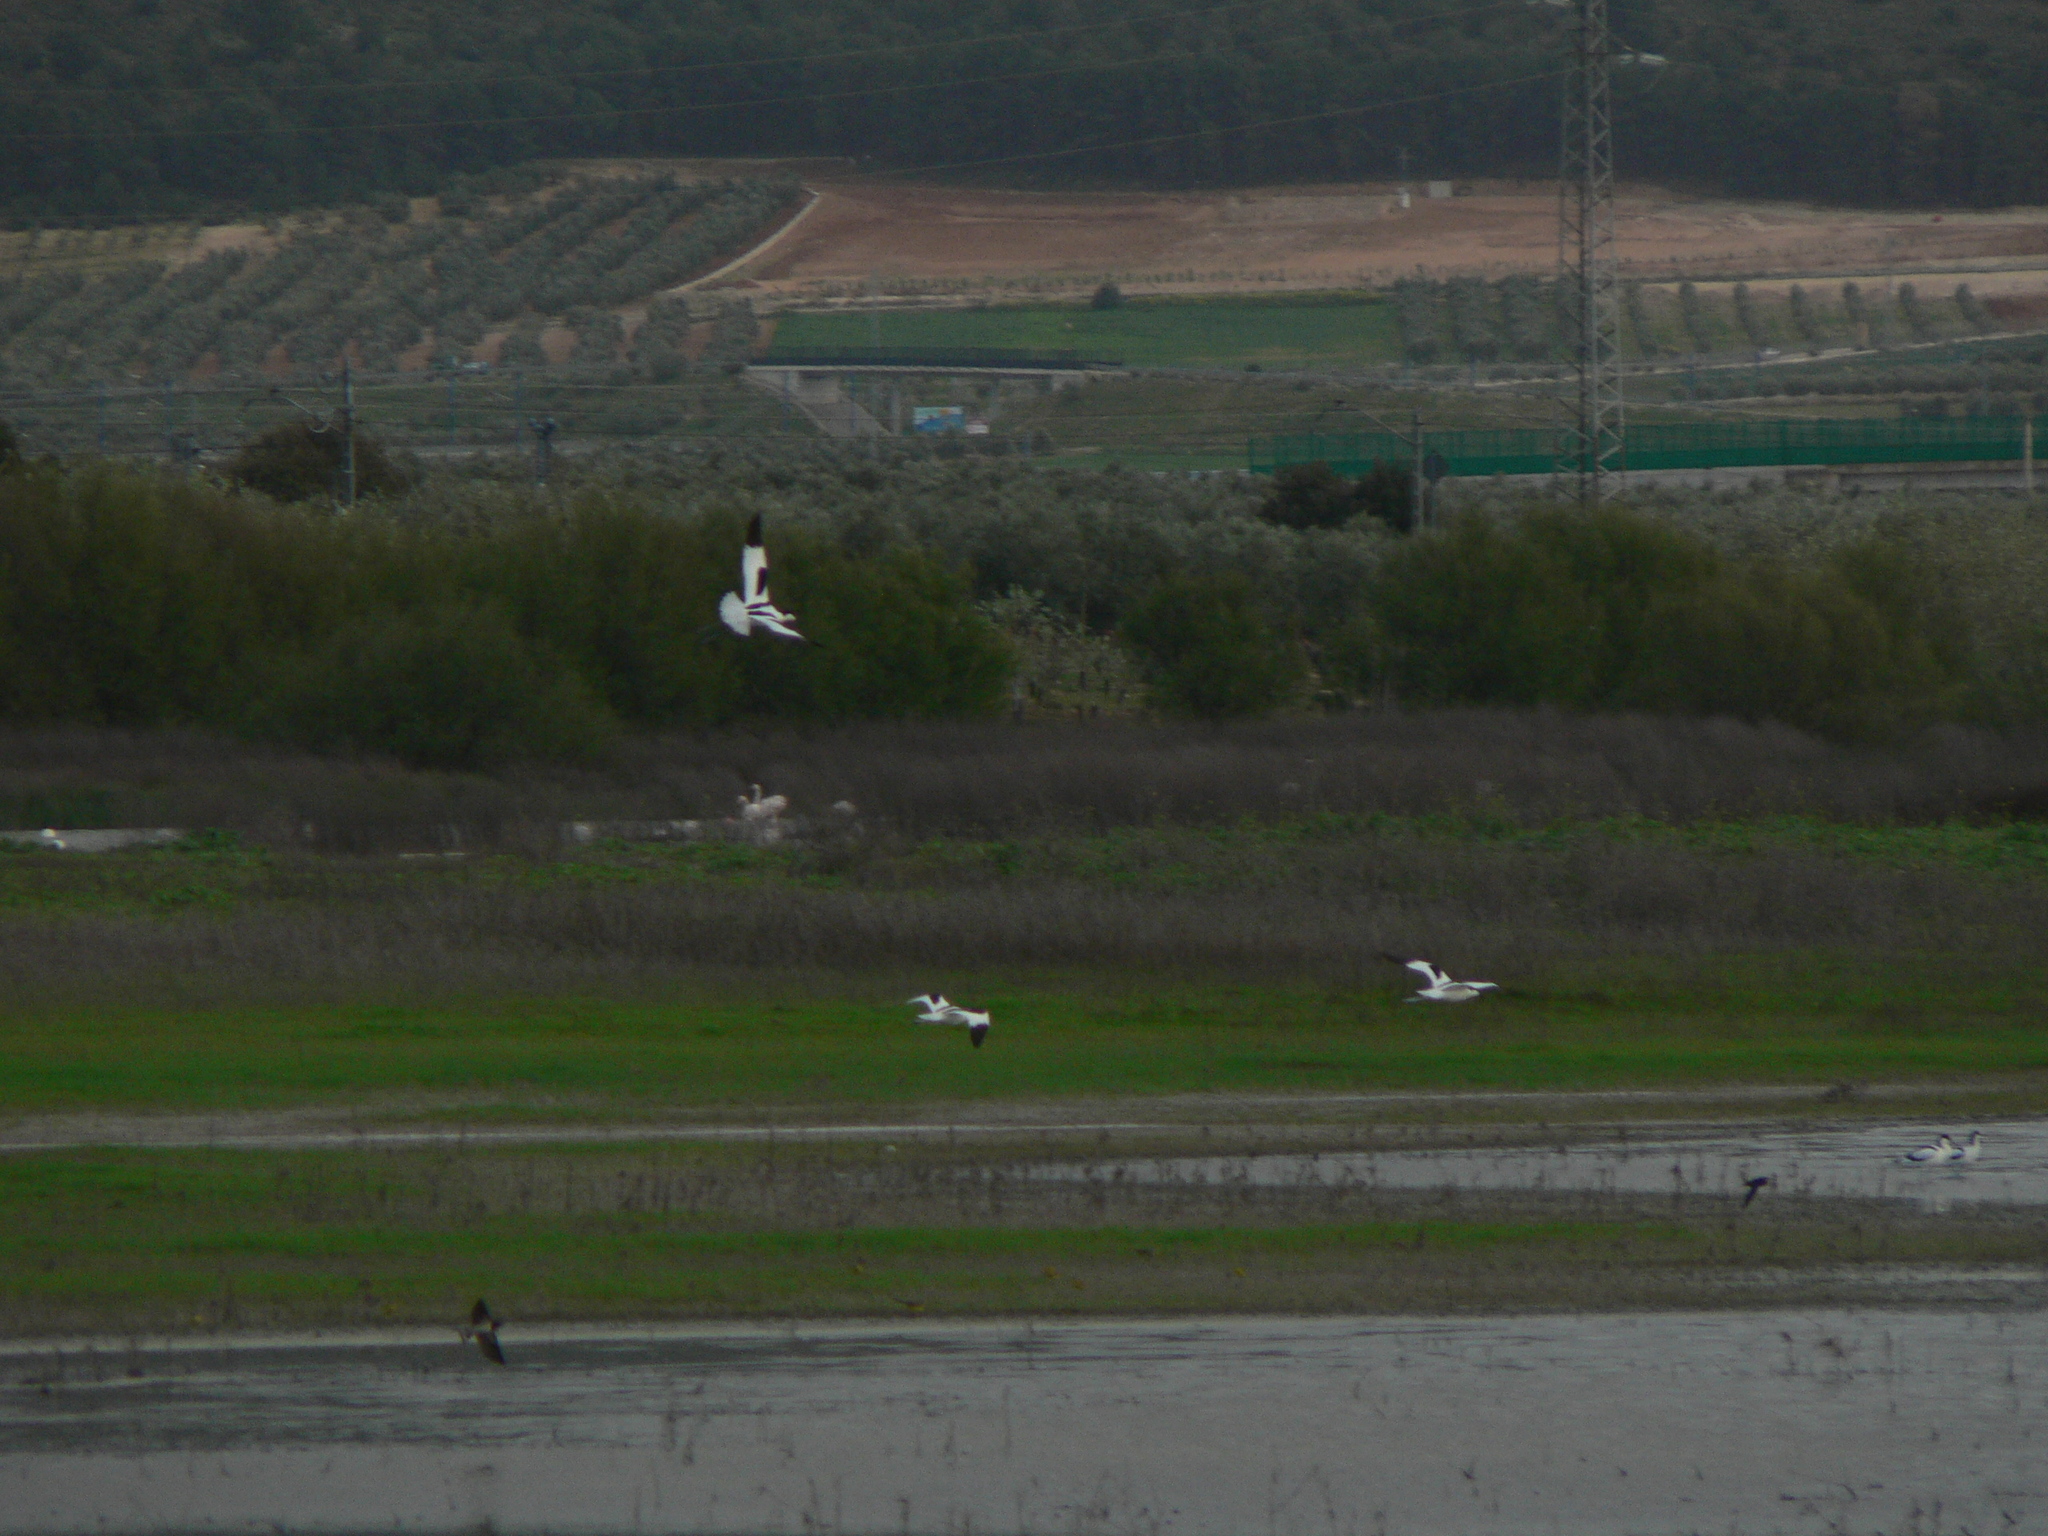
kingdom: Animalia
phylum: Chordata
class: Aves
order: Charadriiformes
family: Recurvirostridae
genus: Recurvirostra
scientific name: Recurvirostra avosetta
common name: Pied avocet
